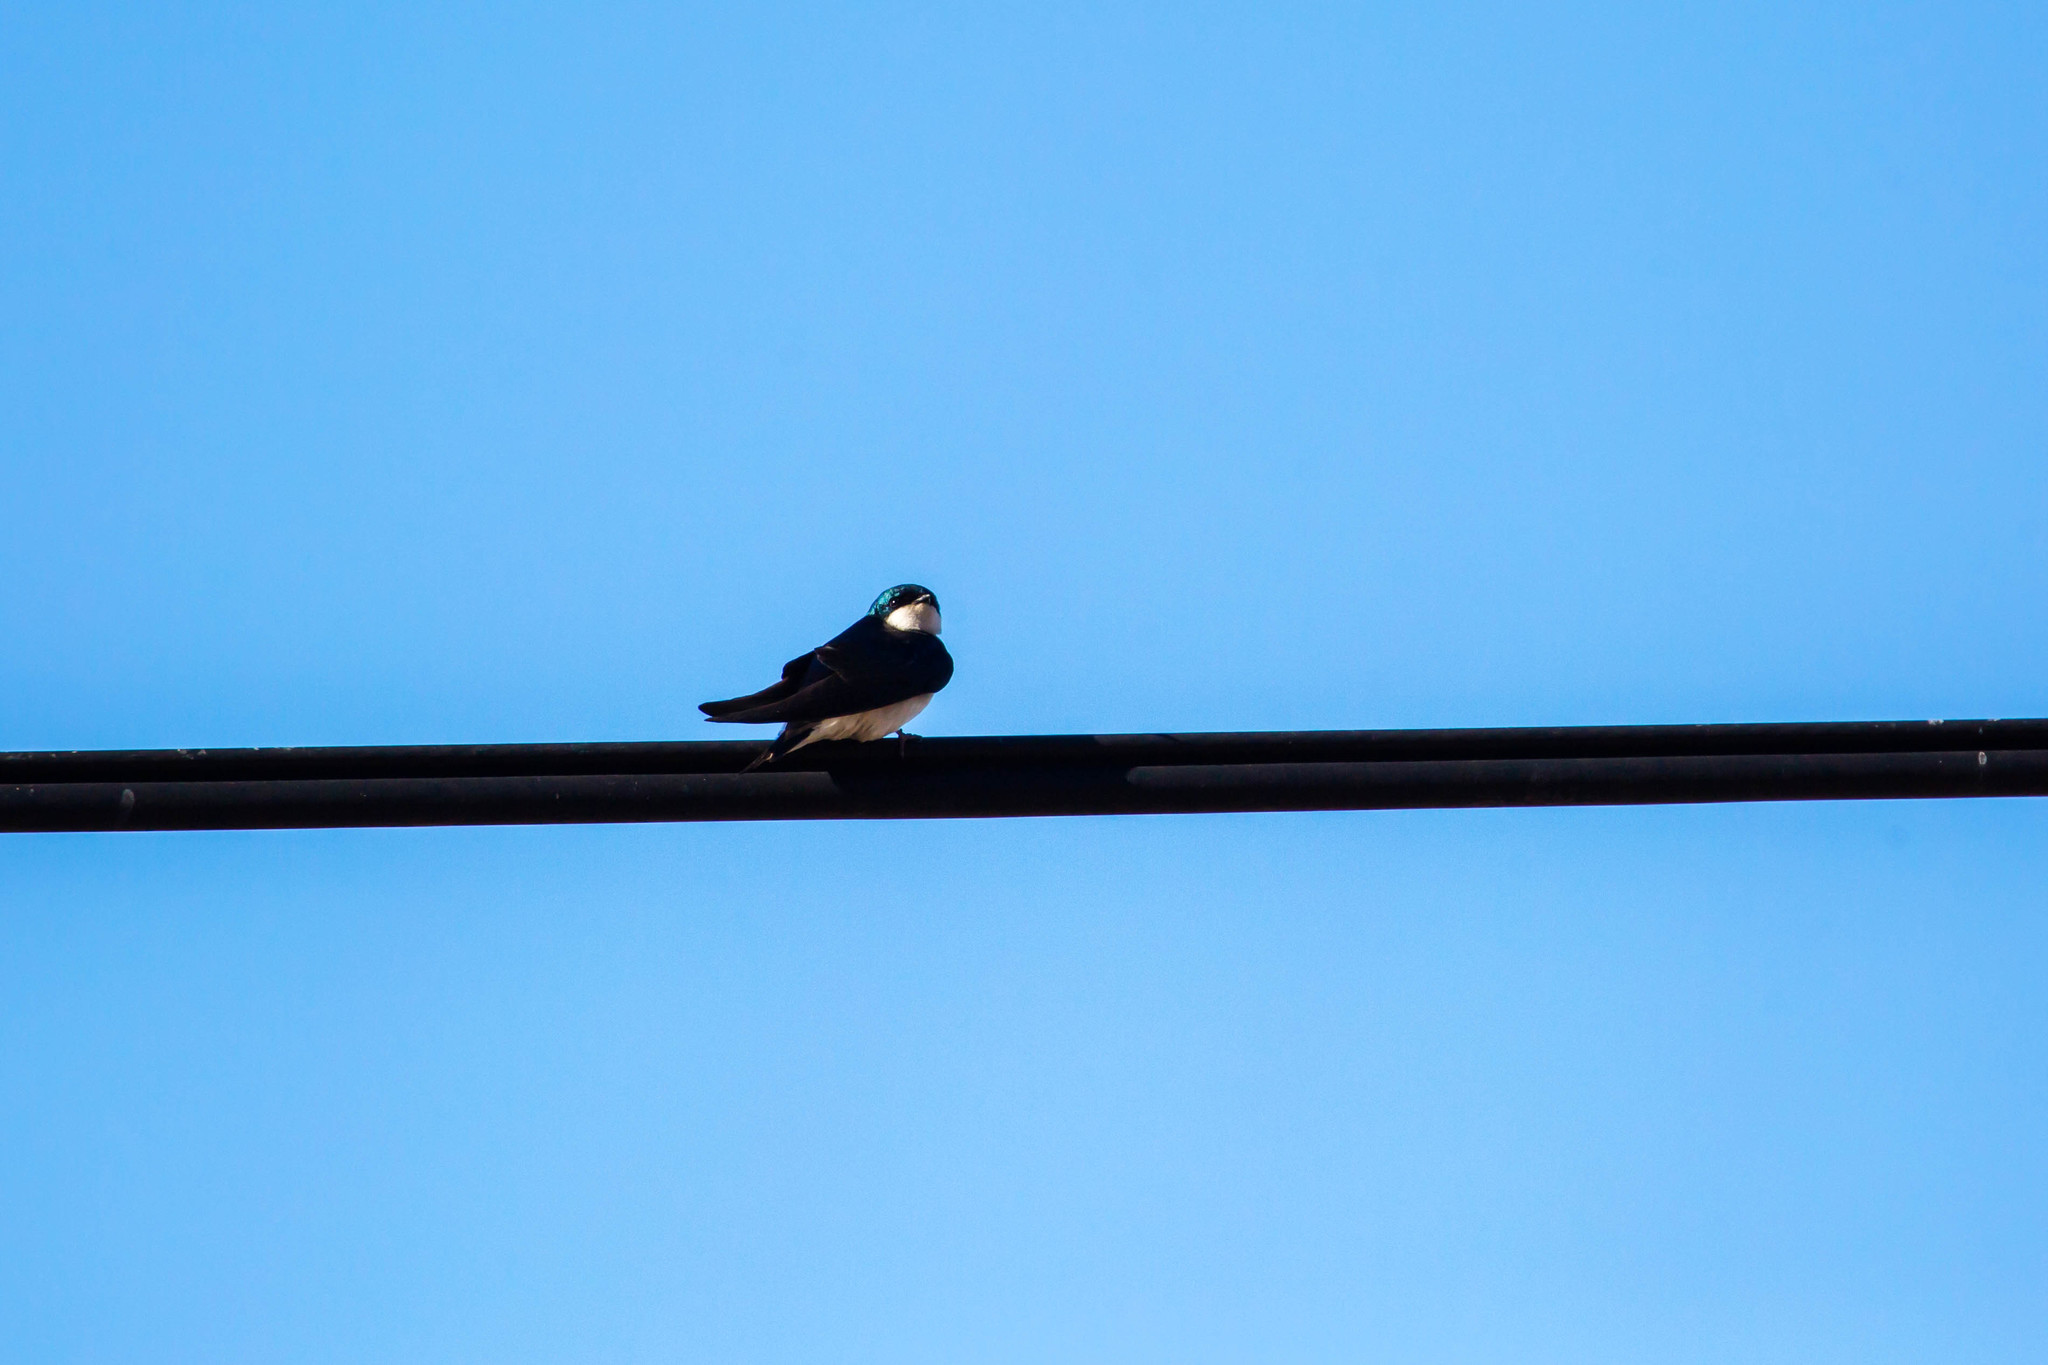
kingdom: Animalia
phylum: Chordata
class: Aves
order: Passeriformes
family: Hirundinidae
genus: Tachycineta
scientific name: Tachycineta bicolor
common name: Tree swallow
